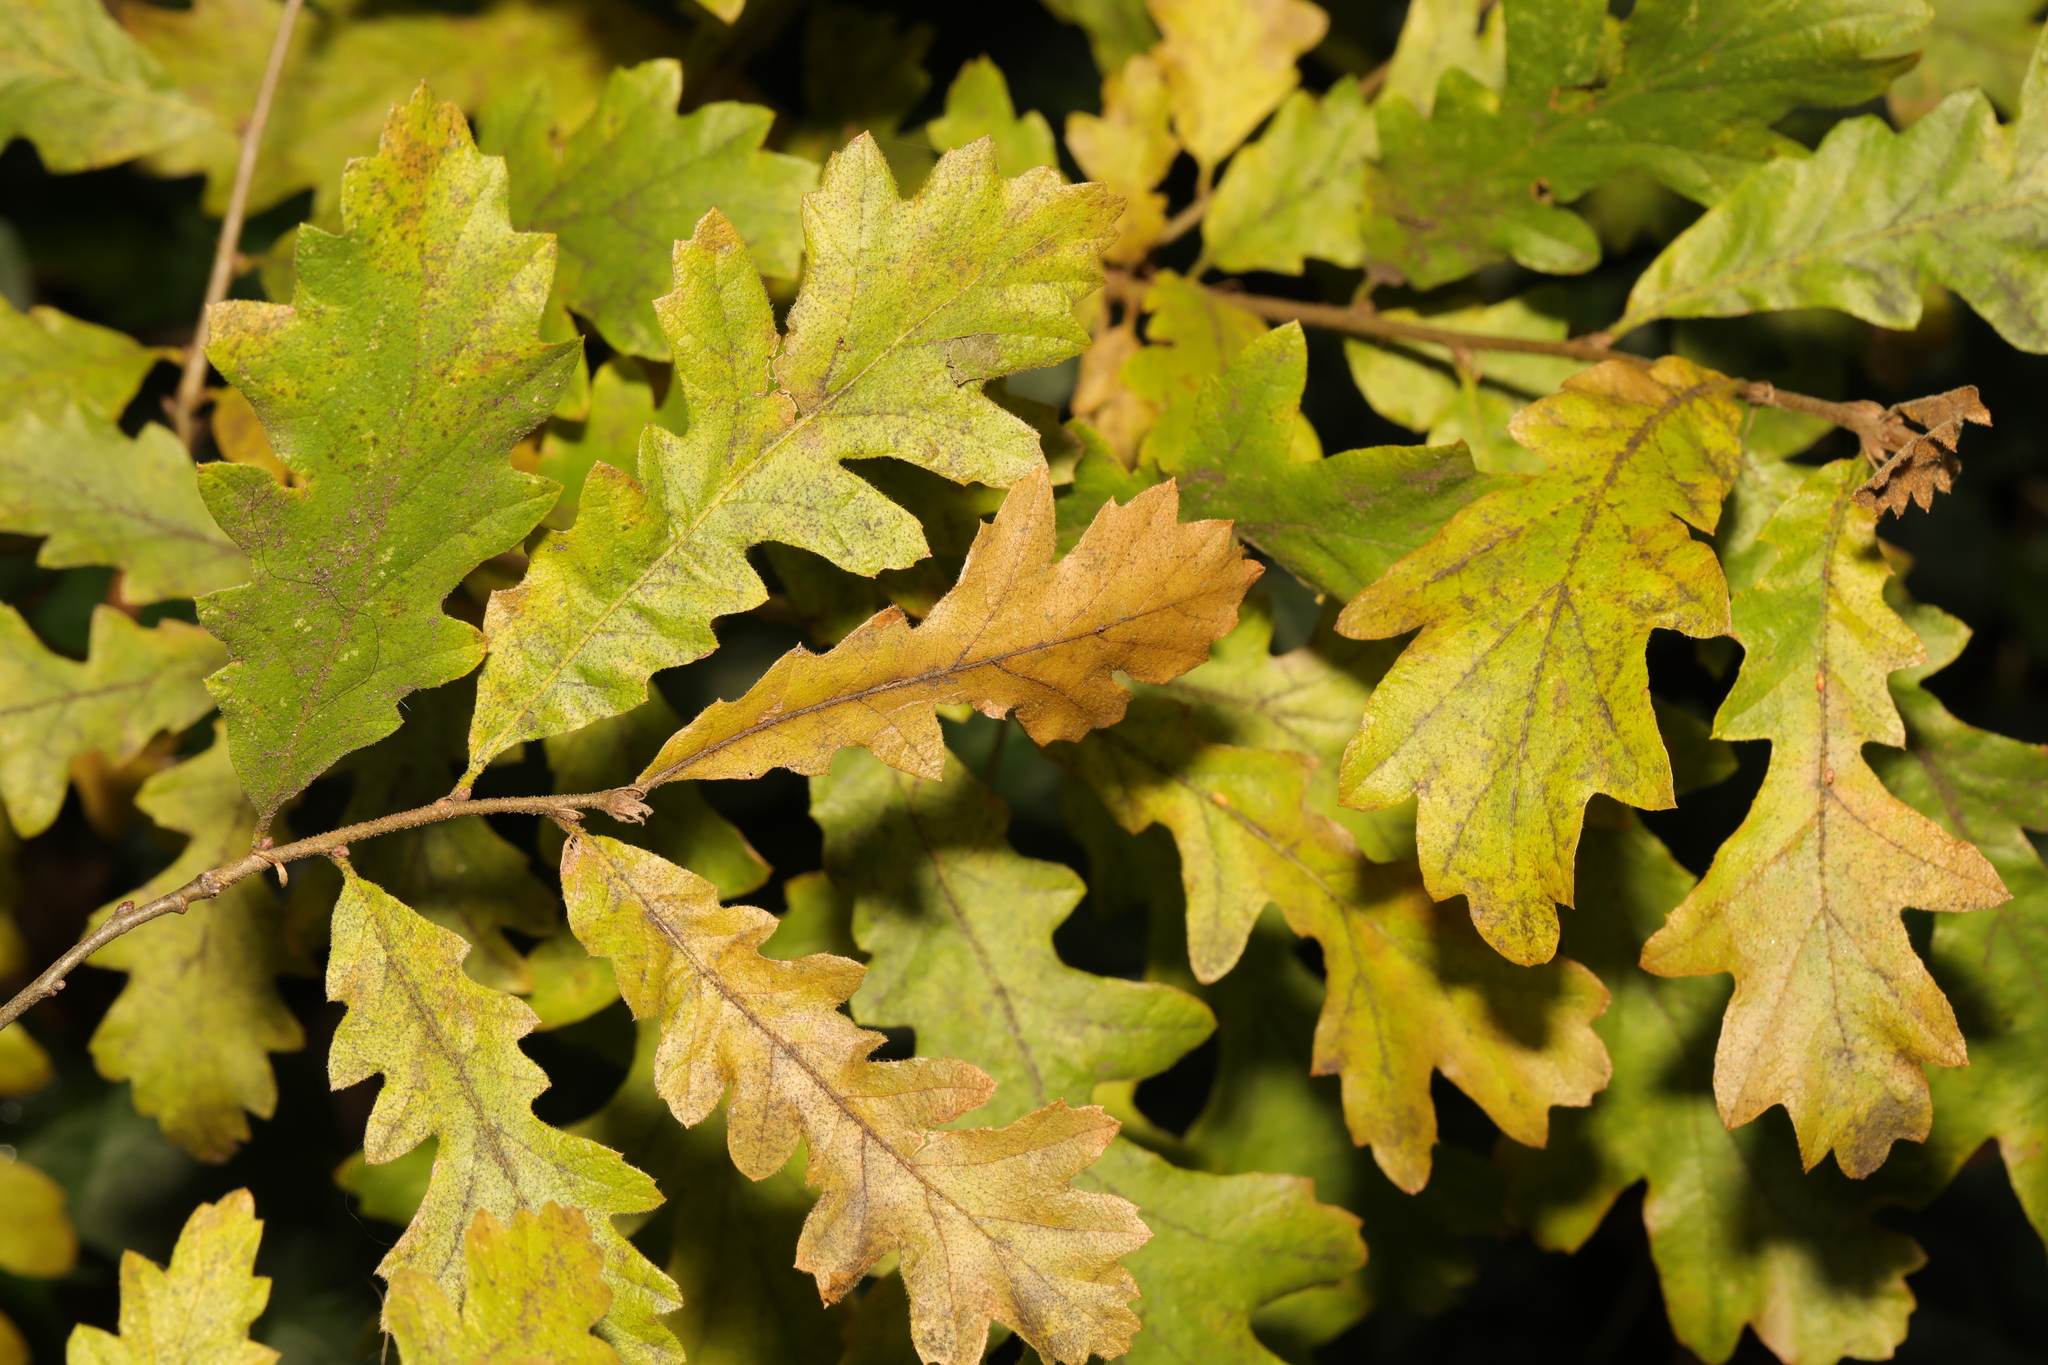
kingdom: Plantae
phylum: Tracheophyta
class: Magnoliopsida
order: Fagales
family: Fagaceae
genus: Quercus
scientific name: Quercus cerris
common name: Turkey oak
